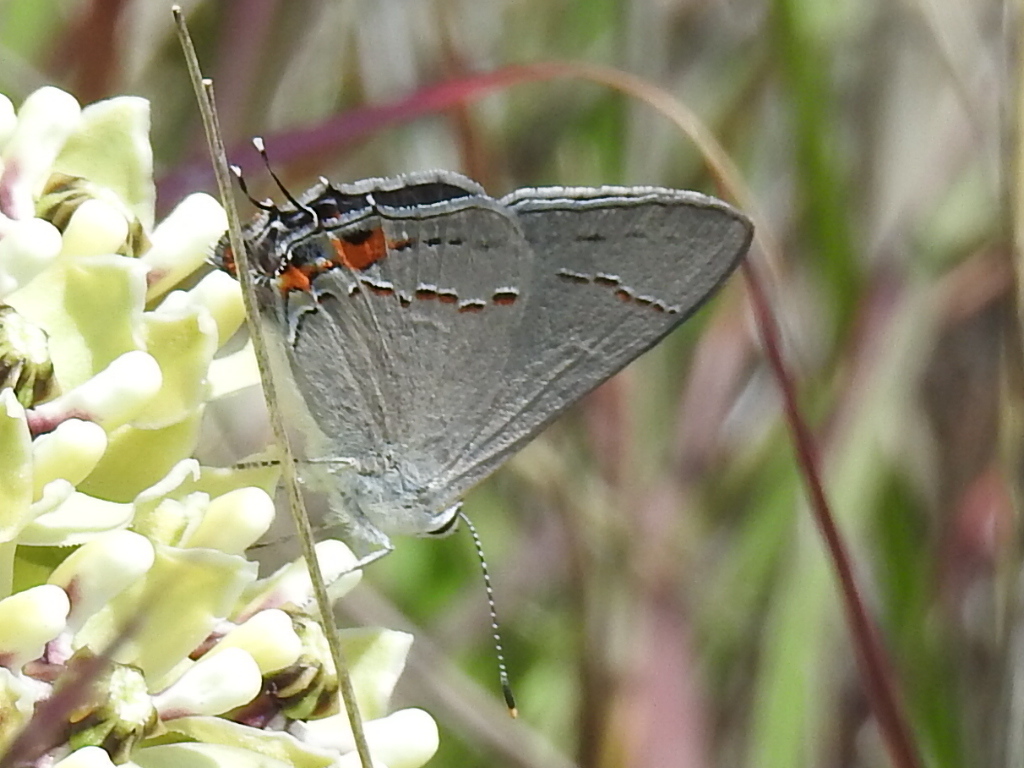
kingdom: Animalia
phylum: Arthropoda
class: Insecta
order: Lepidoptera
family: Lycaenidae
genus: Strymon
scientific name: Strymon melinus
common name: Gray hairstreak
